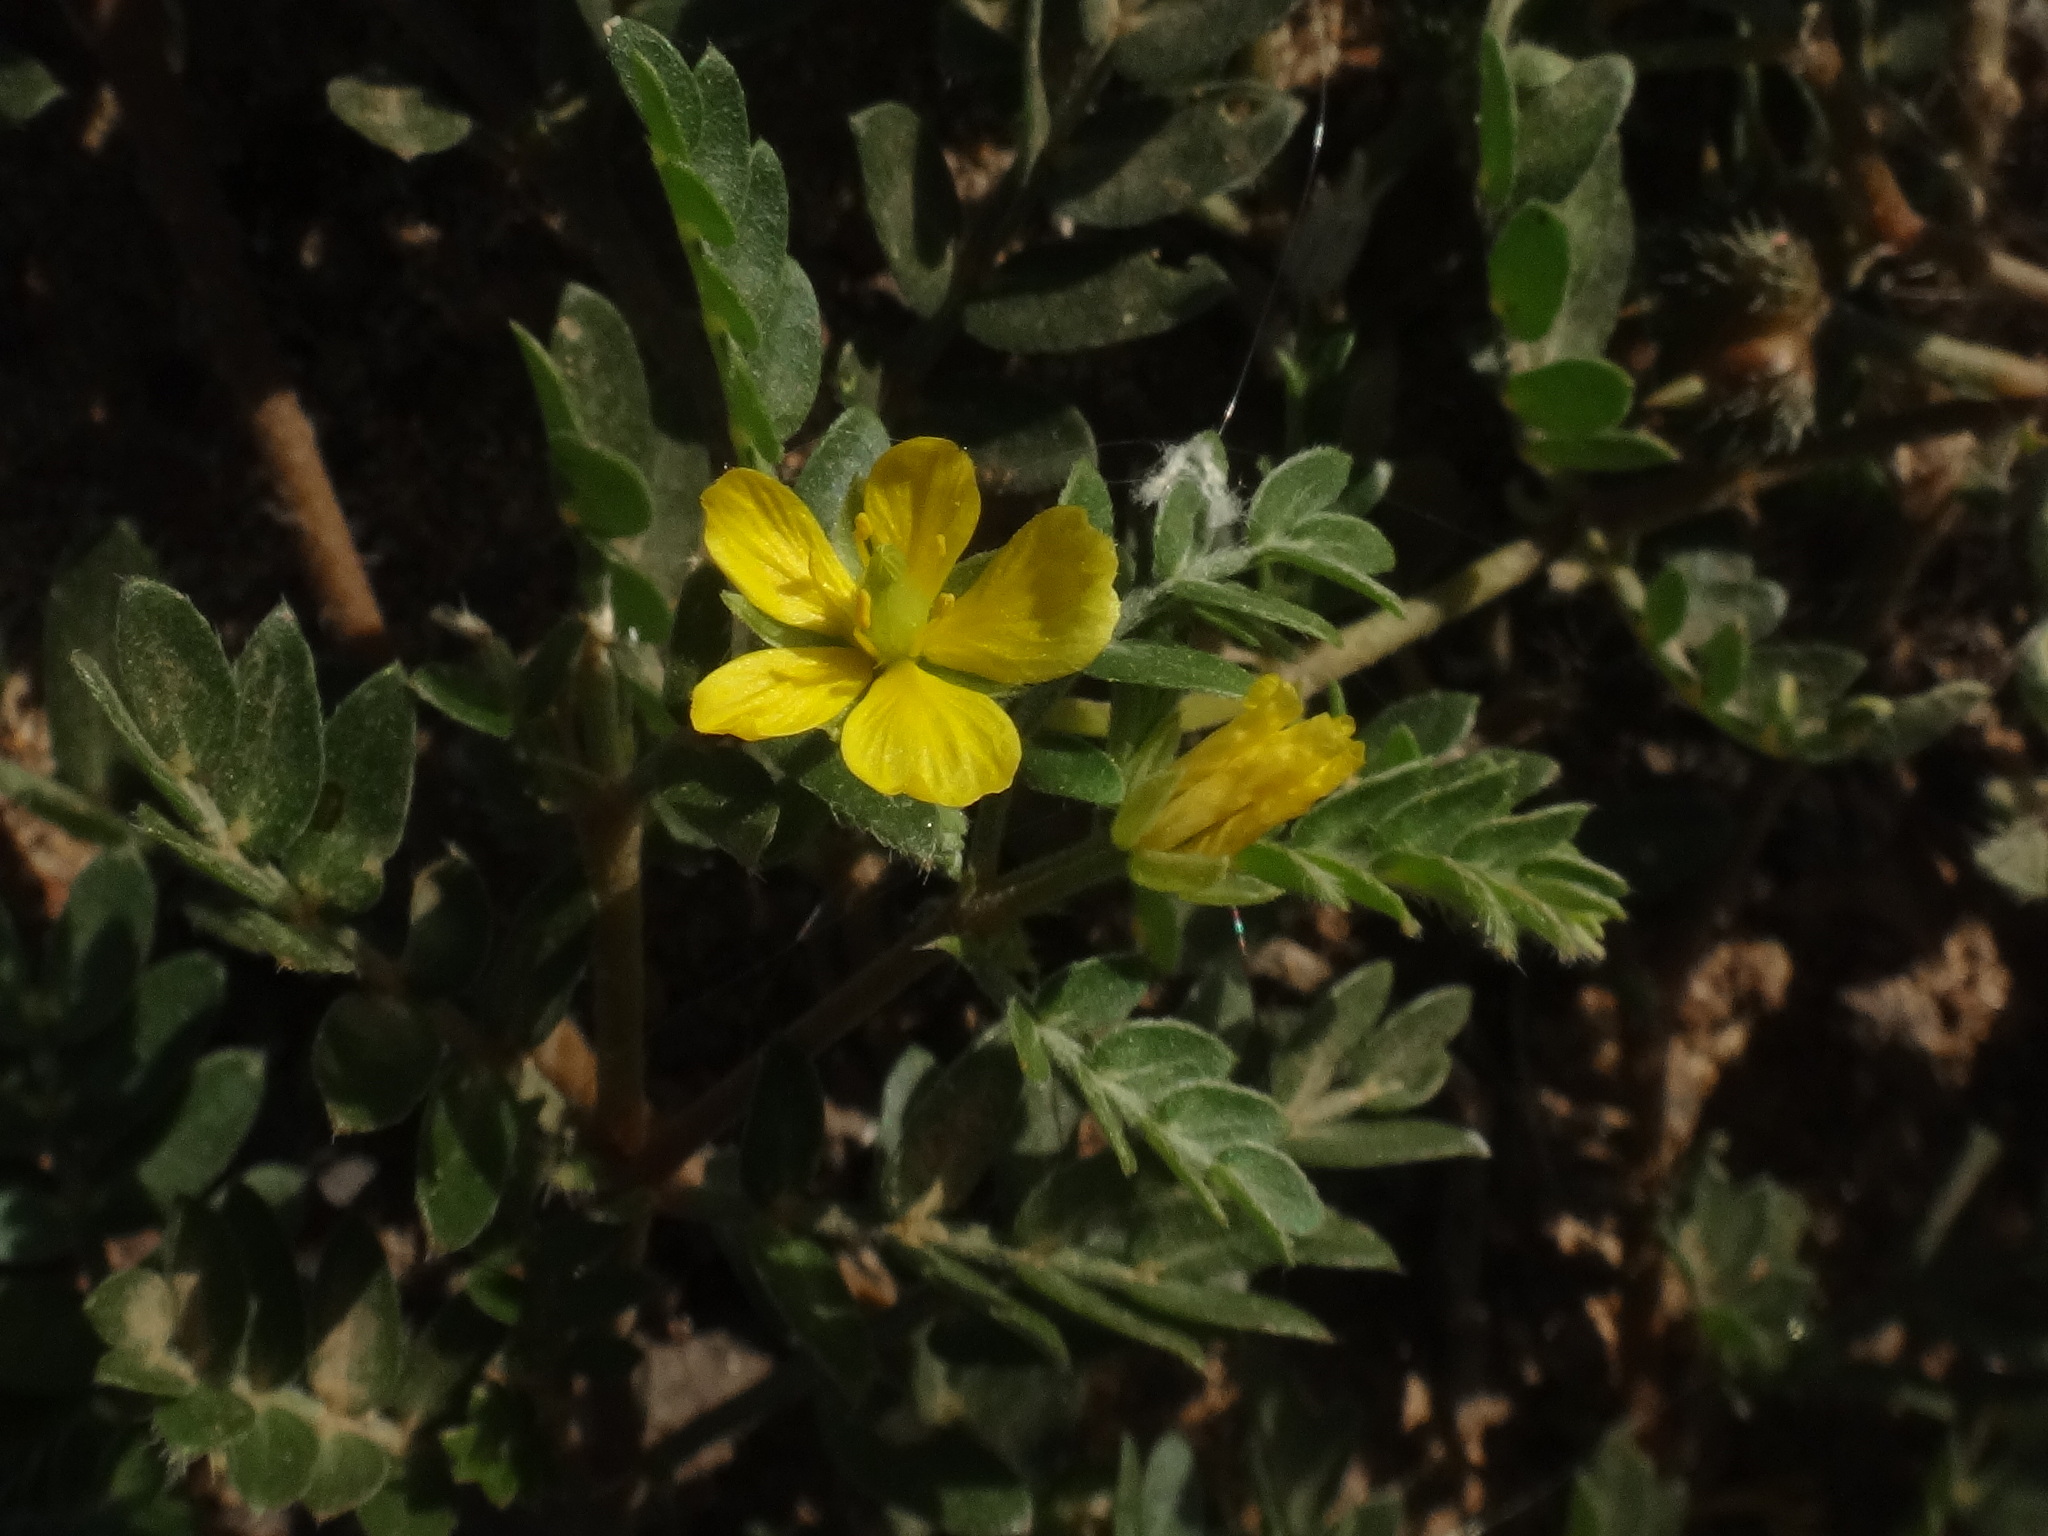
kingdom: Plantae
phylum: Tracheophyta
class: Magnoliopsida
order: Zygophyllales
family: Zygophyllaceae
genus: Tribulus
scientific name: Tribulus terrestris
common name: Puncturevine
